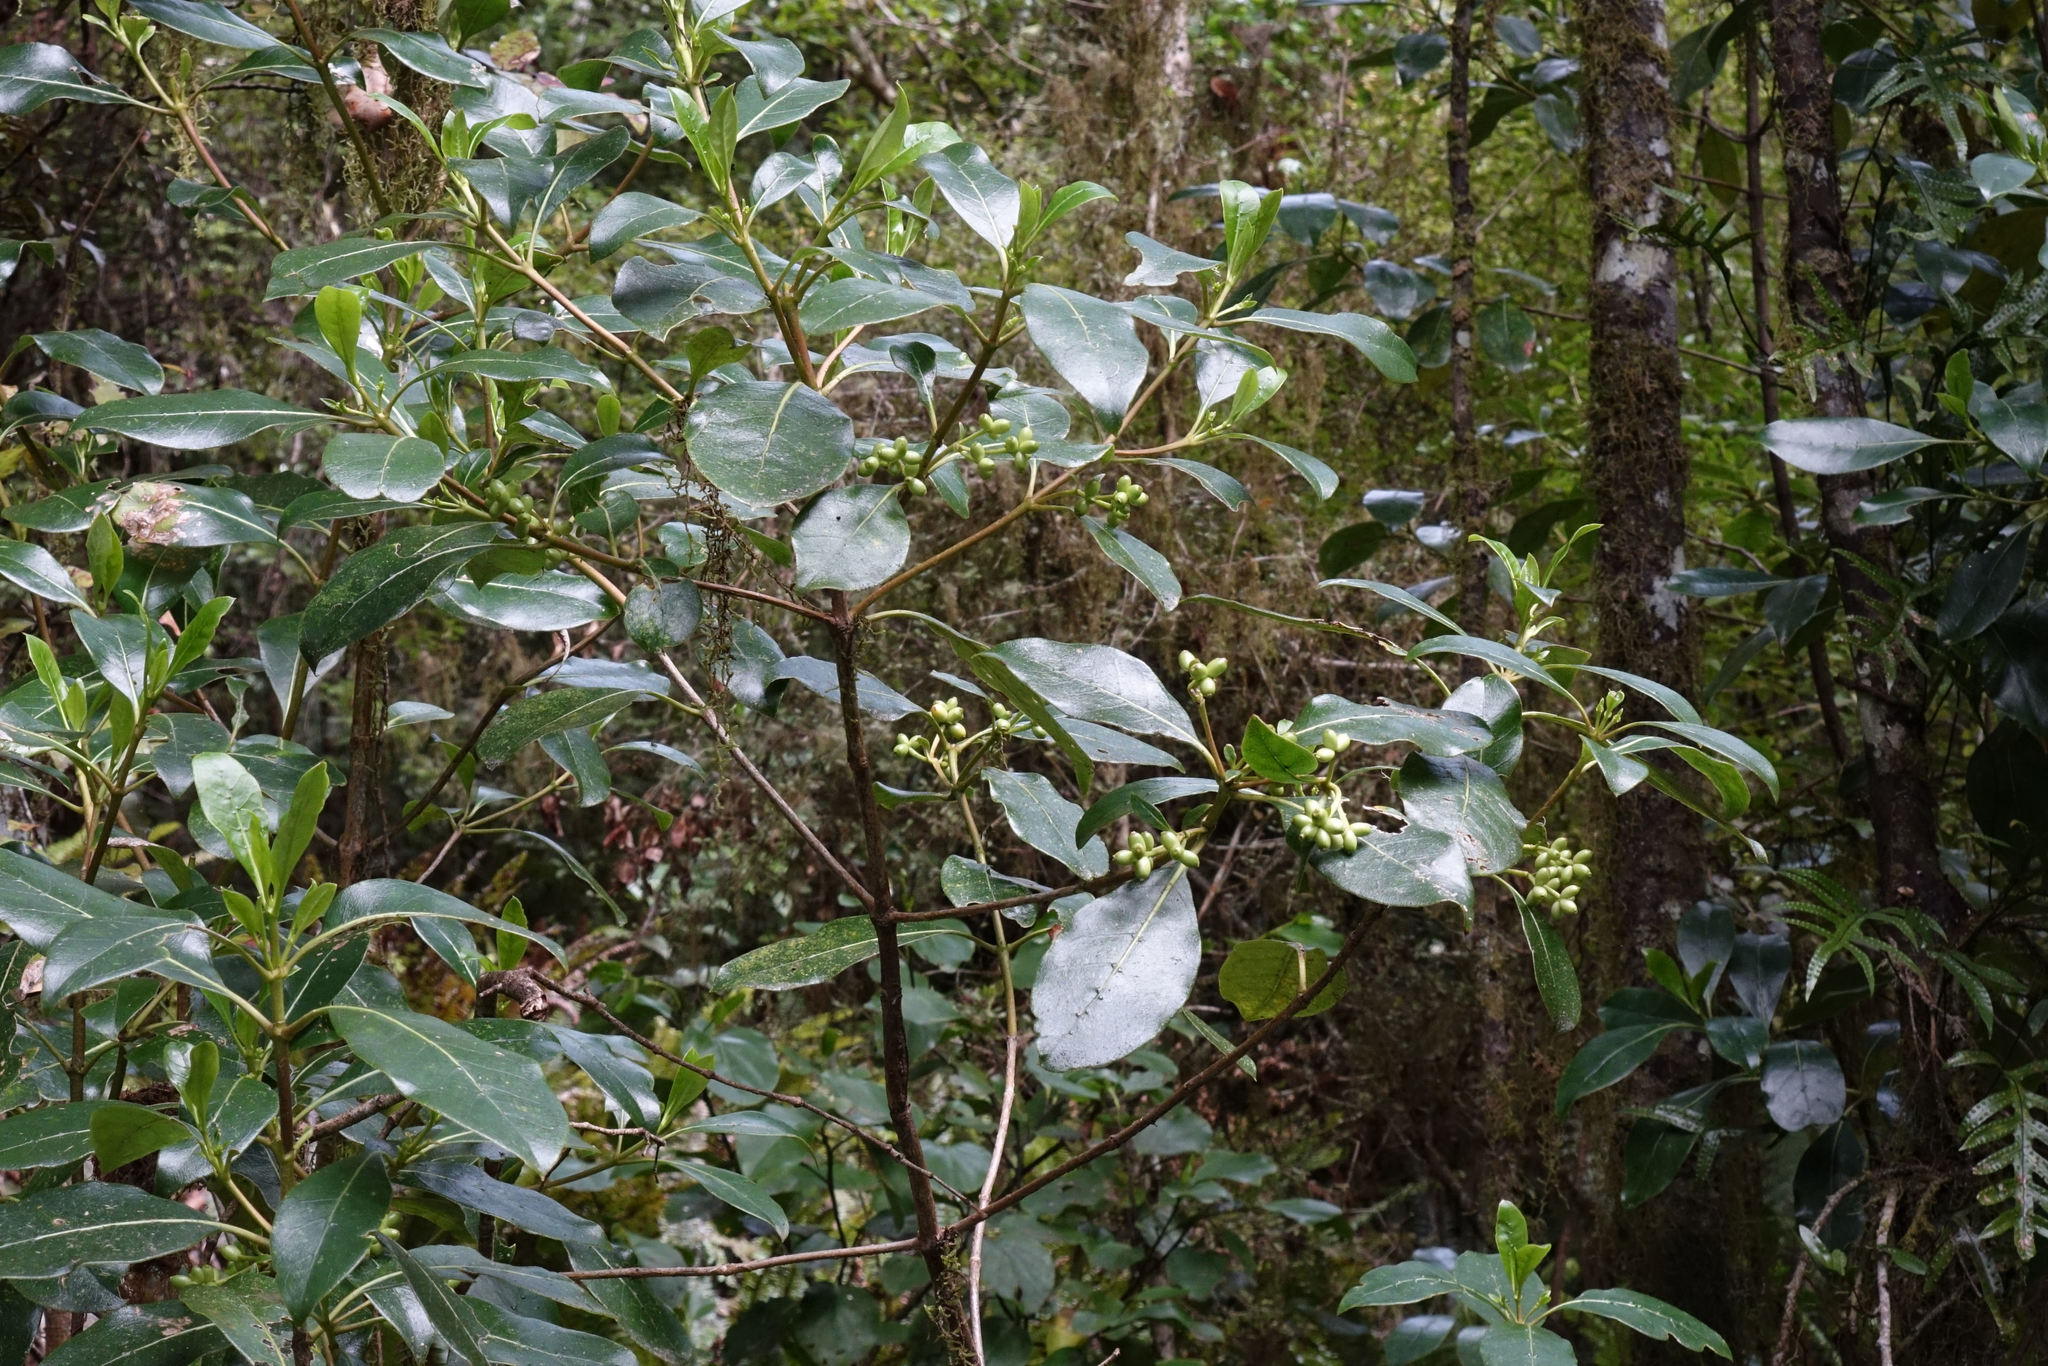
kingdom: Plantae
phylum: Tracheophyta
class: Magnoliopsida
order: Gentianales
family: Rubiaceae
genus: Coprosma
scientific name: Coprosma lucida
